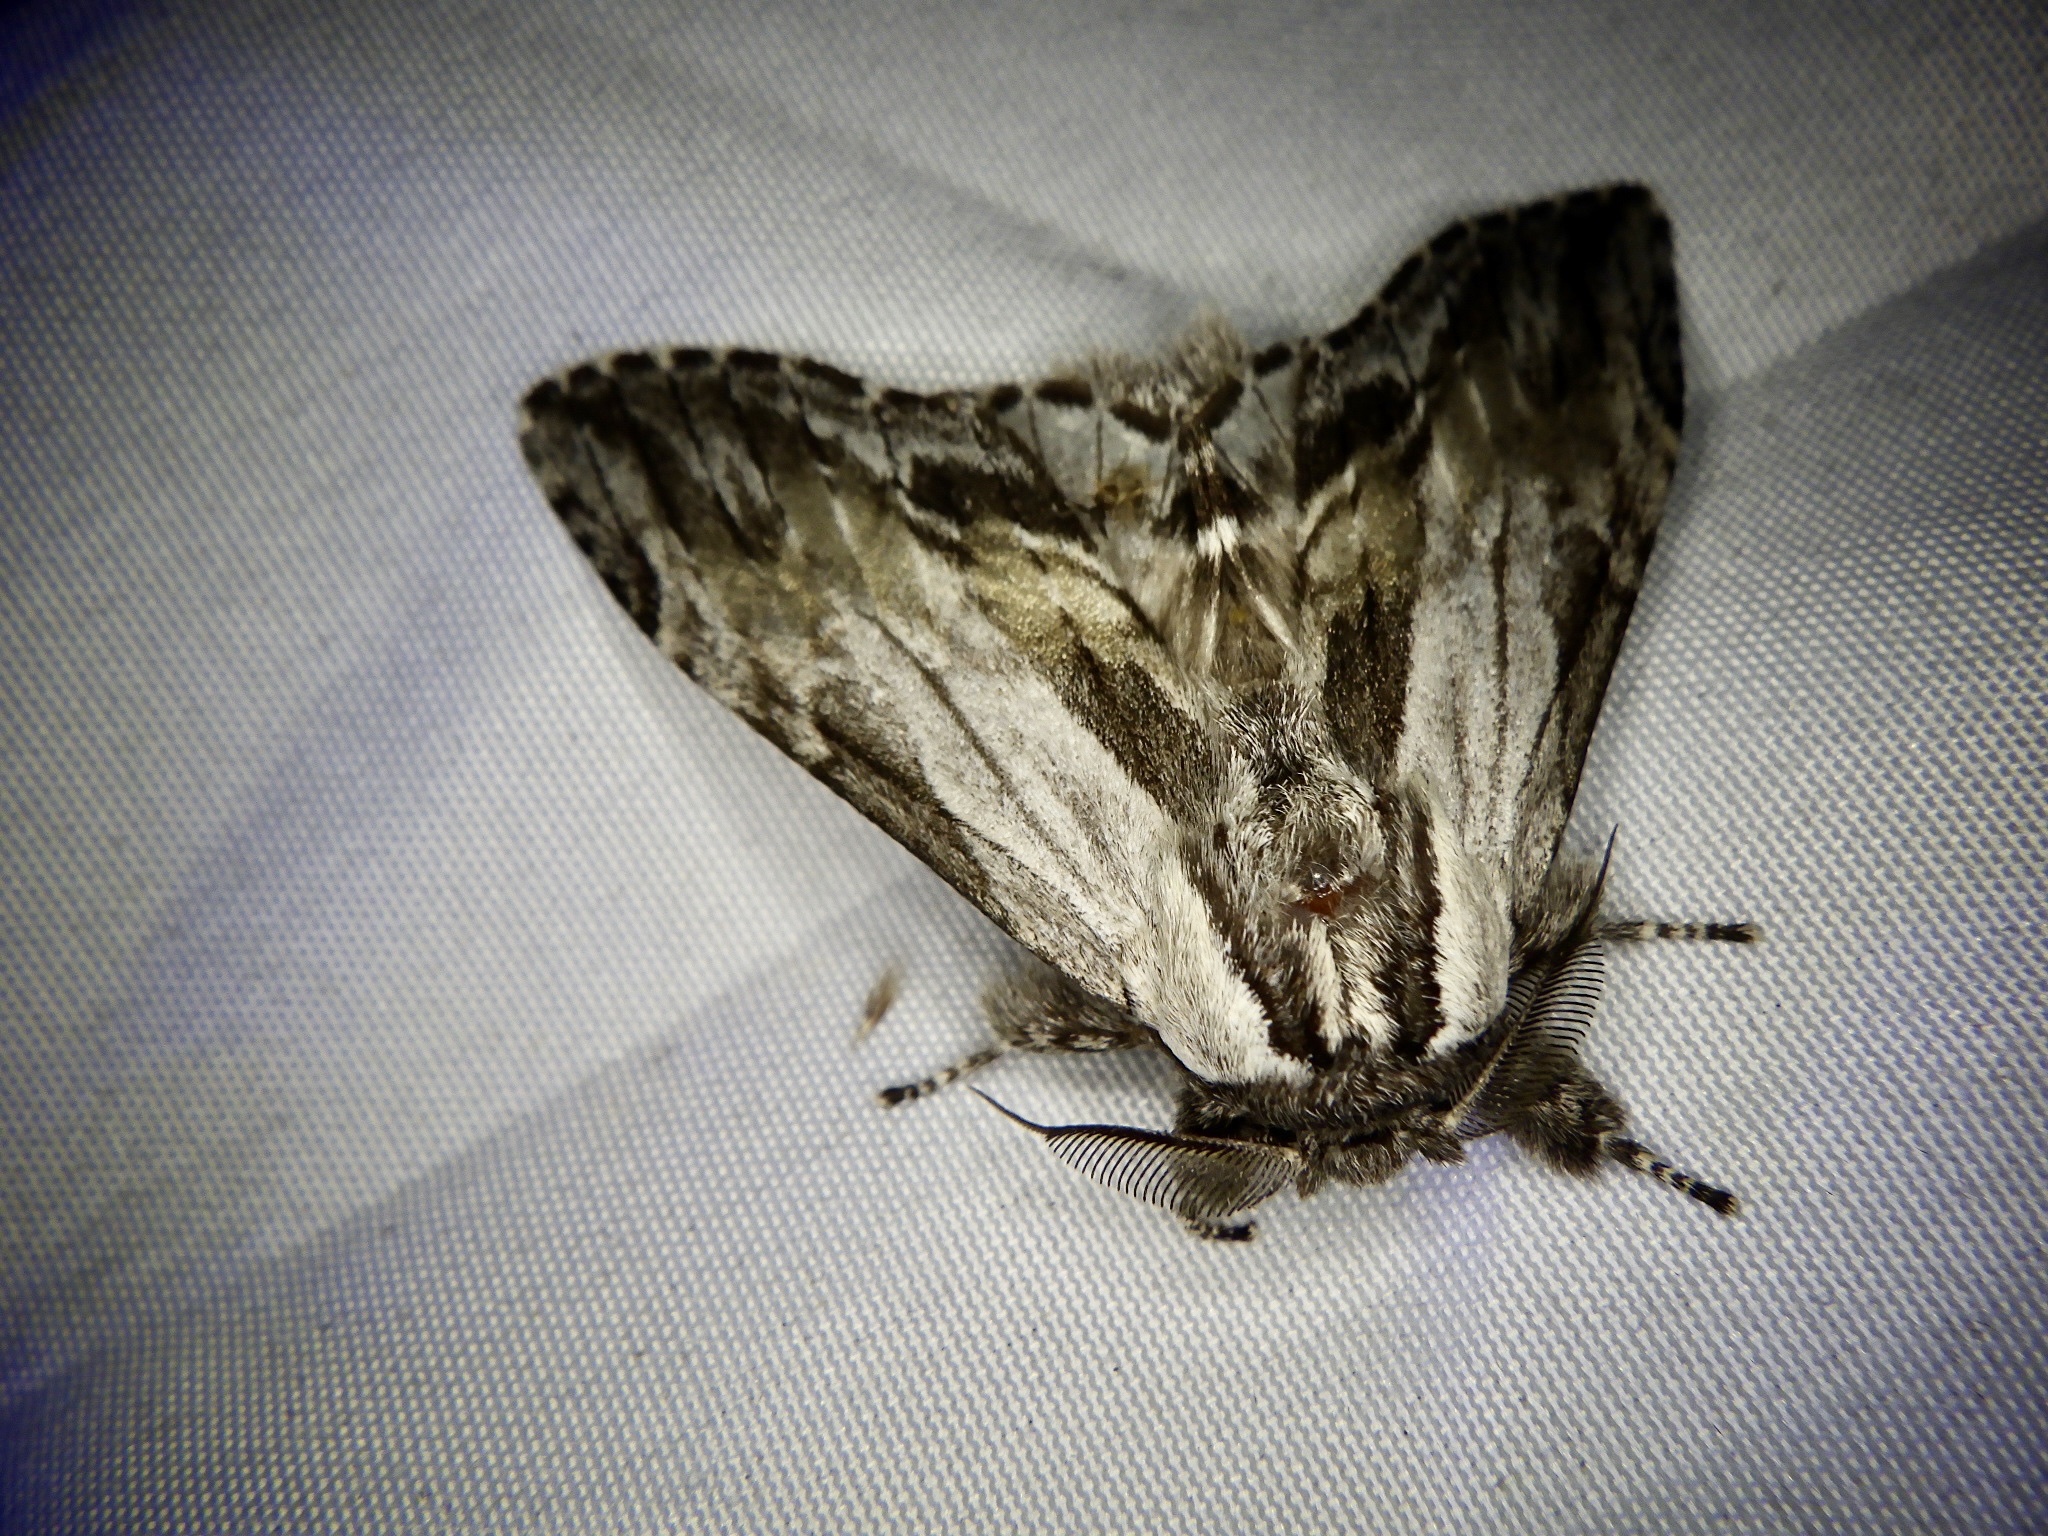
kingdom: Animalia
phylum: Arthropoda
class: Insecta
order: Lepidoptera
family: Notodontidae
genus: Harpyia
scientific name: Harpyia umbrosa
